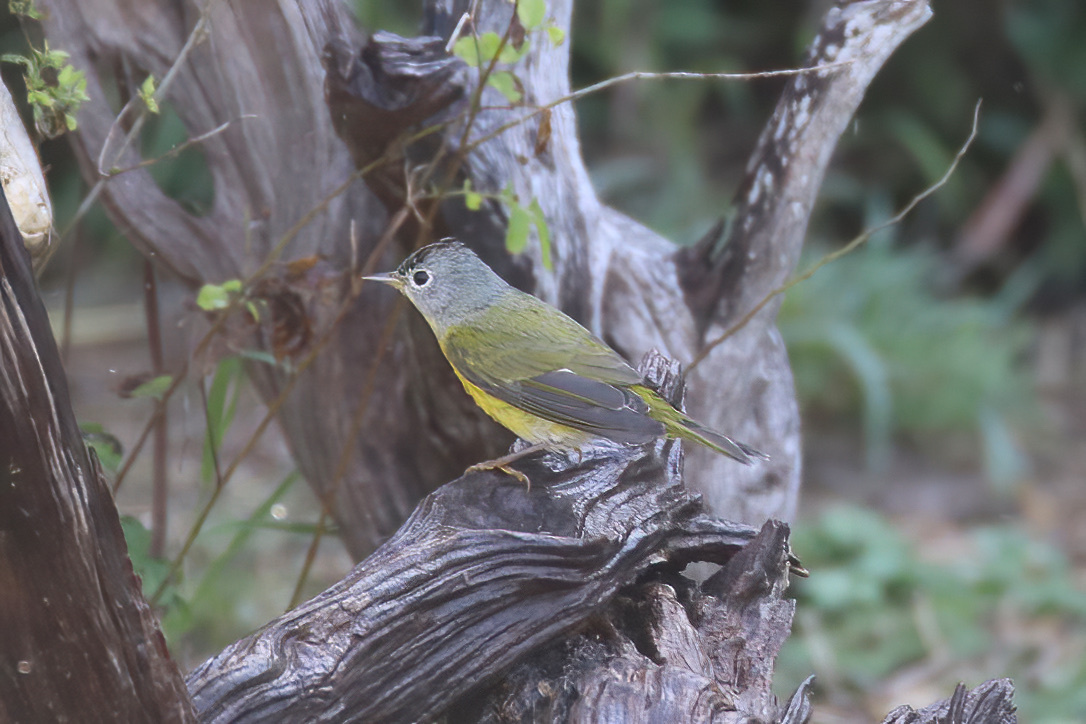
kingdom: Animalia
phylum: Chordata
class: Aves
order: Passeriformes
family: Parulidae
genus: Leiothlypis
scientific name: Leiothlypis ruficapilla
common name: Nashville warbler
